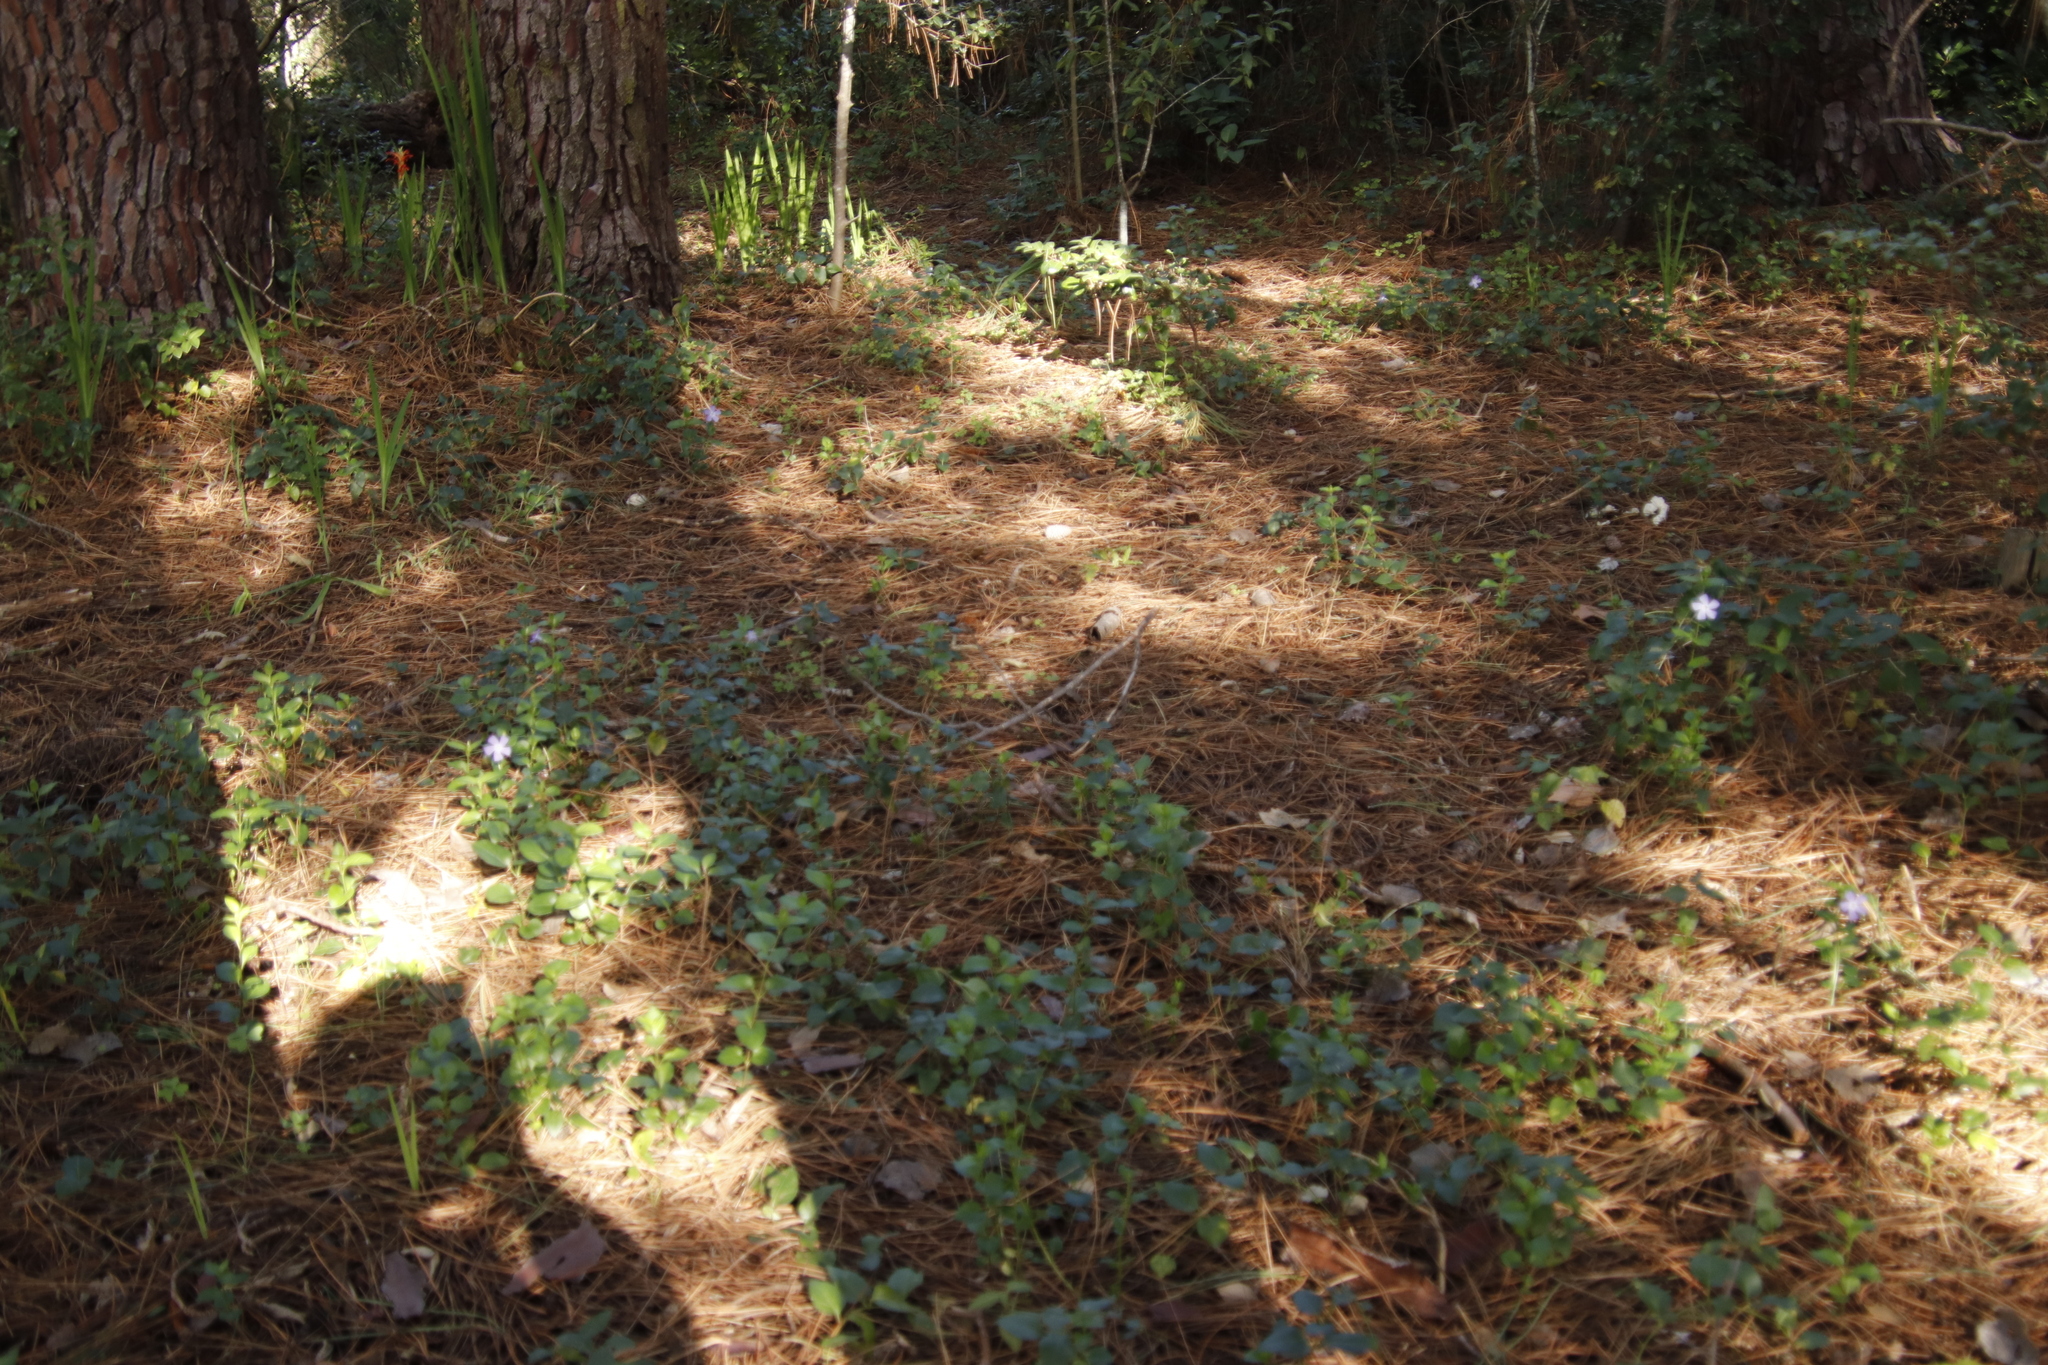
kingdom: Plantae
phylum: Tracheophyta
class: Magnoliopsida
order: Gentianales
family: Apocynaceae
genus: Vinca
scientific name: Vinca major
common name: Greater periwinkle
